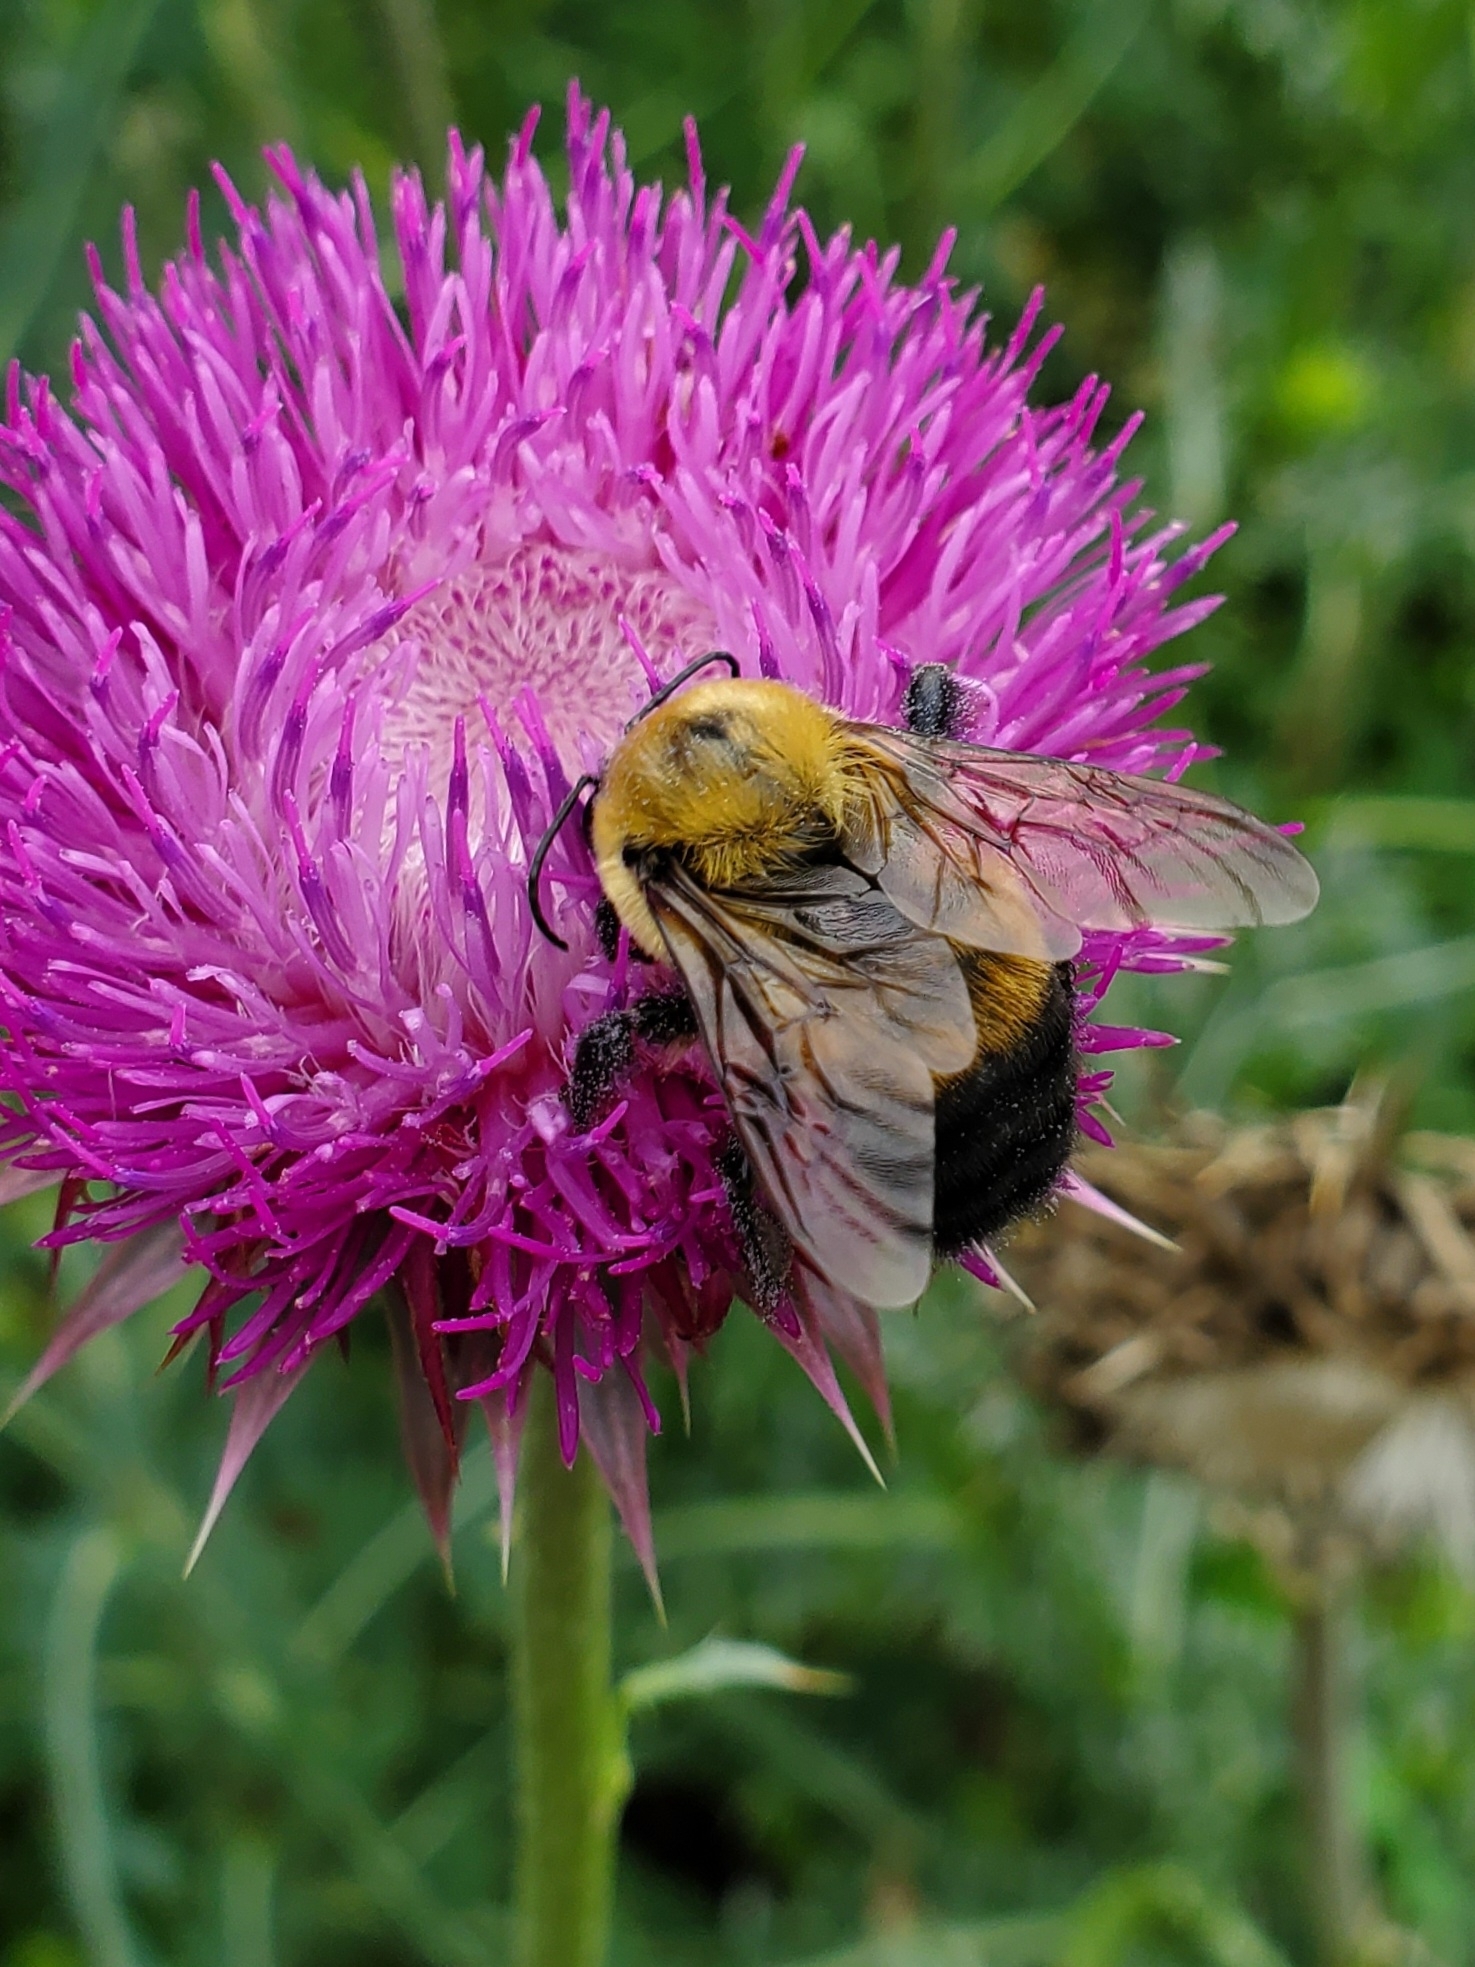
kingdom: Animalia
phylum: Arthropoda
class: Insecta
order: Hymenoptera
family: Apidae
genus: Bombus
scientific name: Bombus griseocollis
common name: Brown-belted bumble bee
